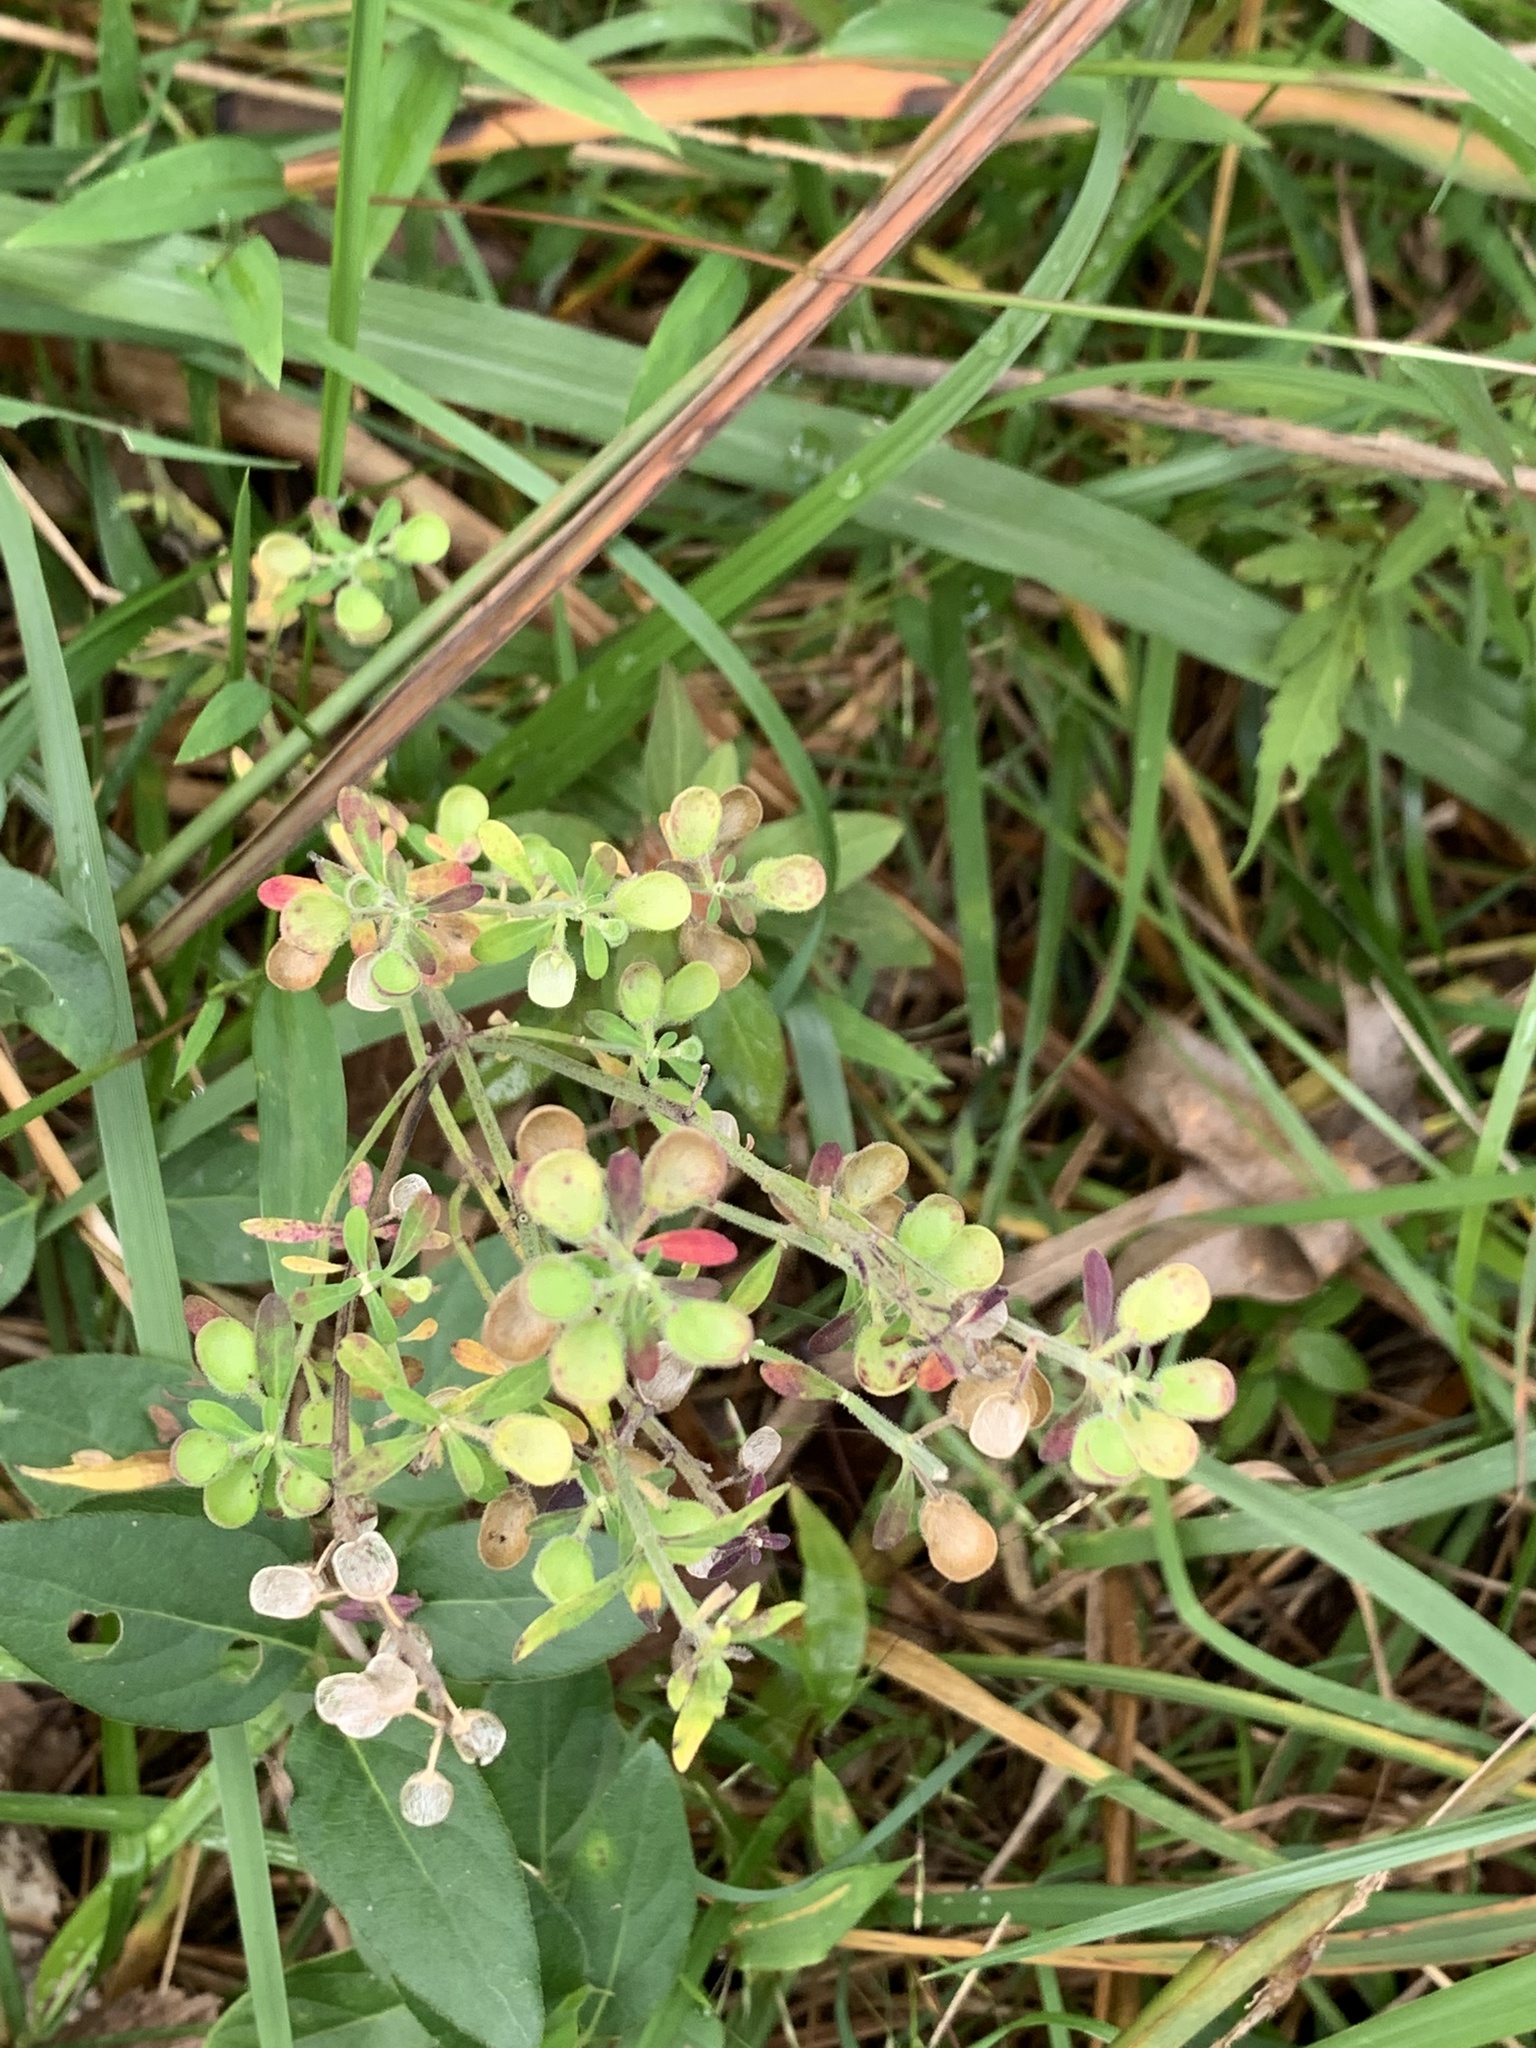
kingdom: Plantae
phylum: Tracheophyta
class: Magnoliopsida
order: Lamiales
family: Lamiaceae
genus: Scutellaria
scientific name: Scutellaria integrifolia
